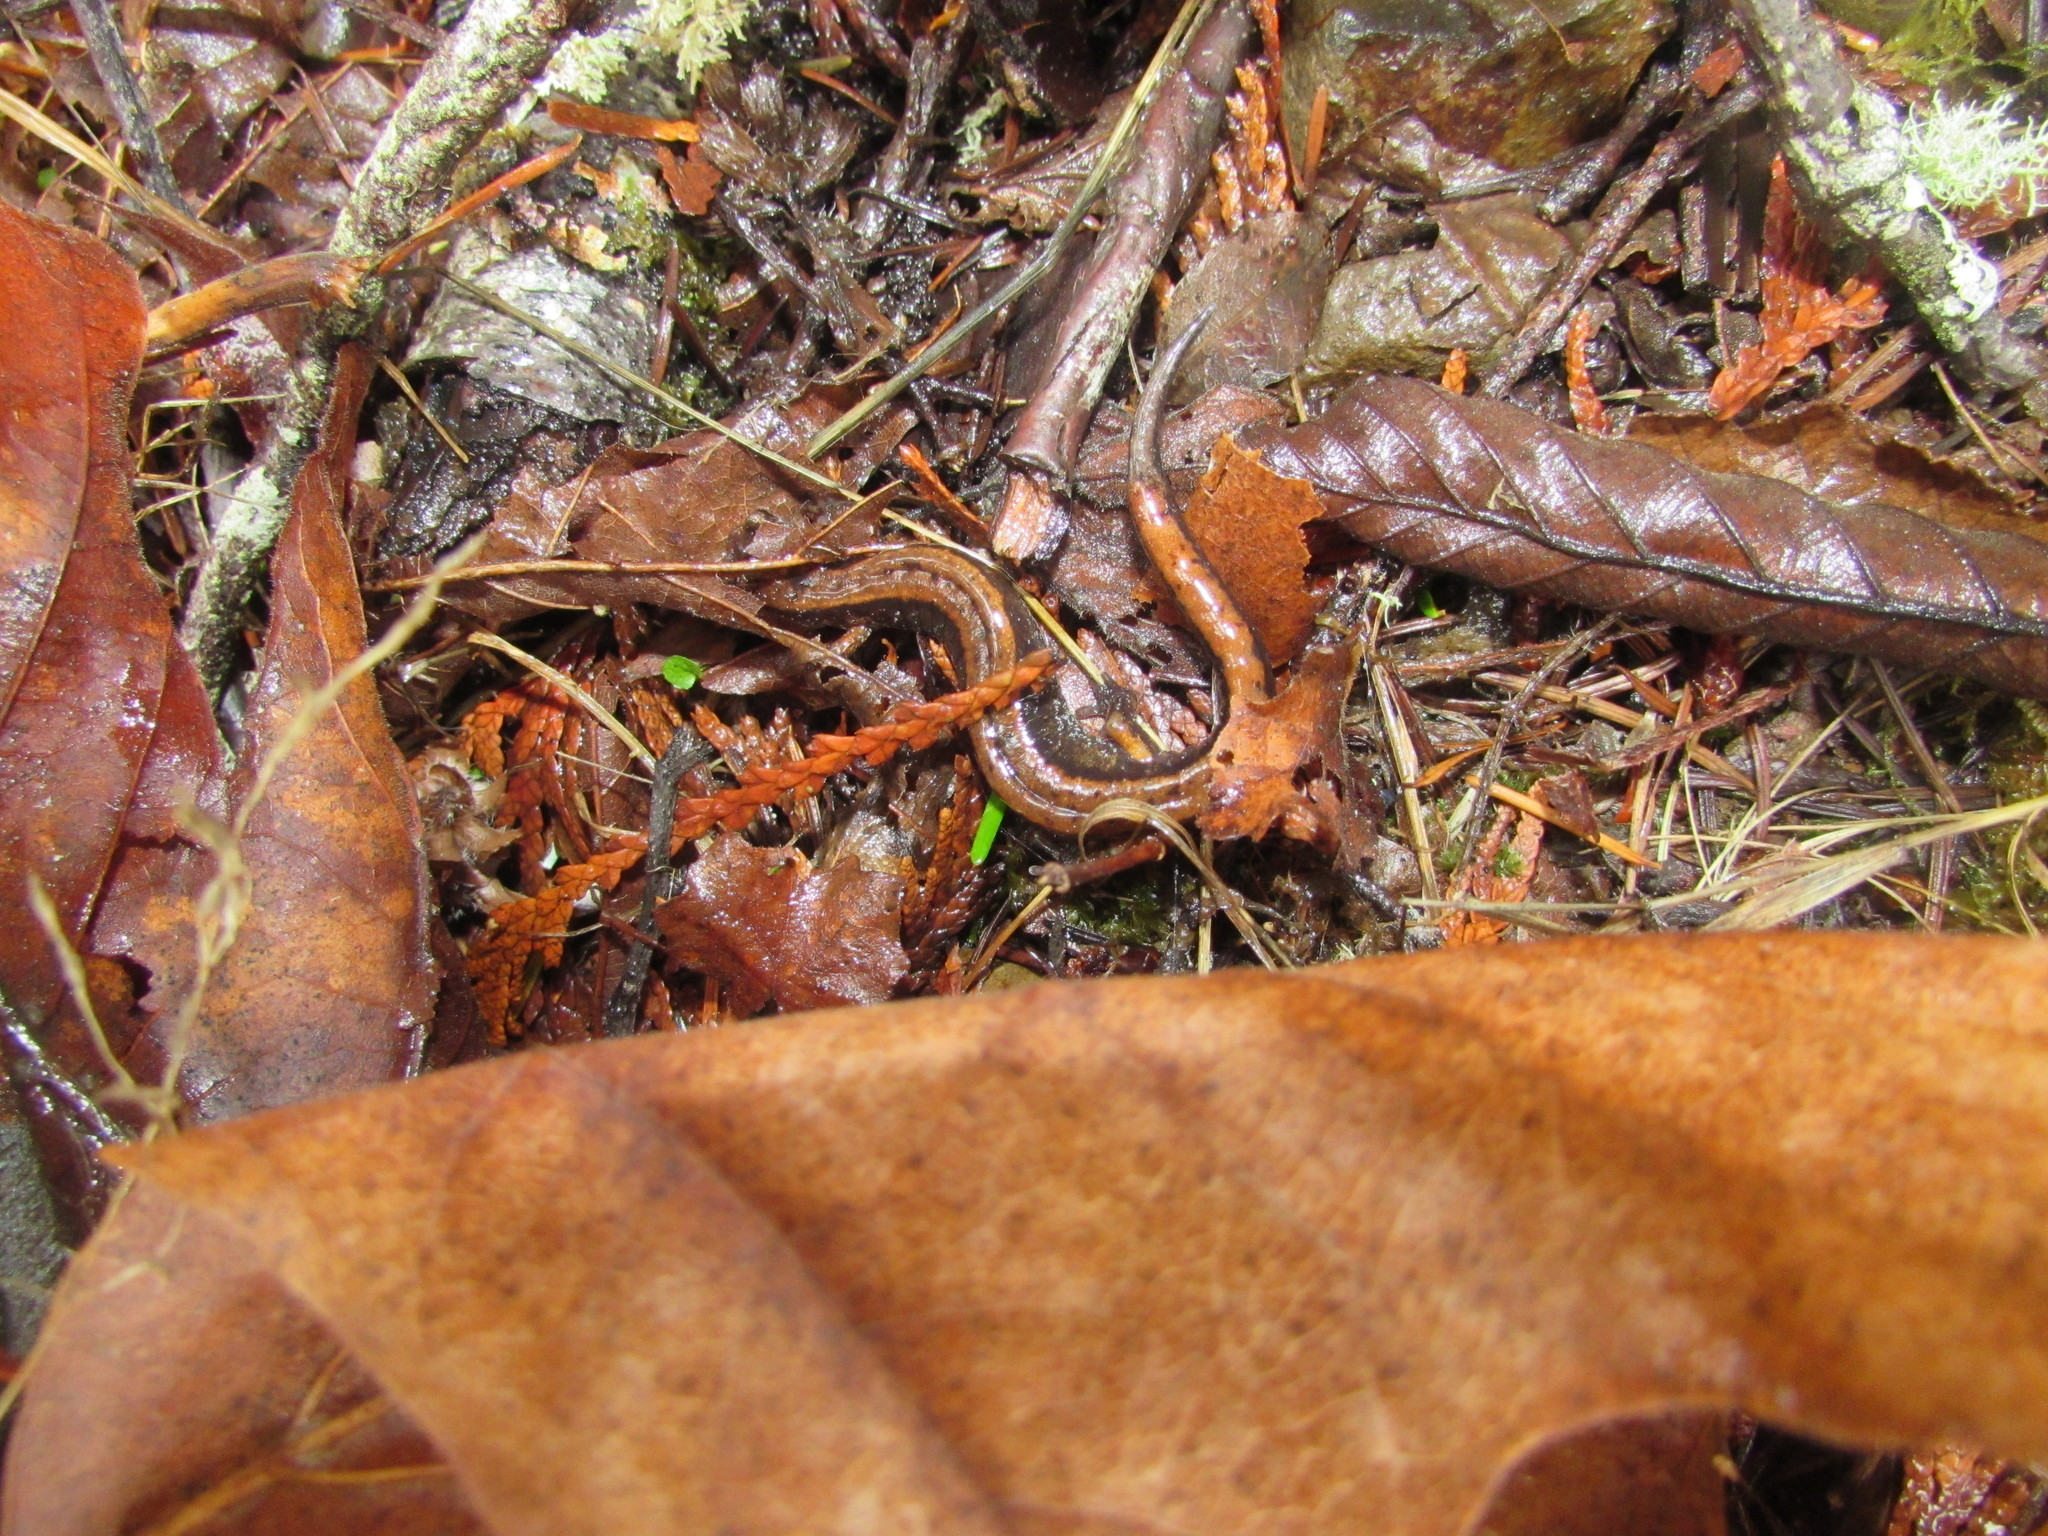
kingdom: Animalia
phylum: Chordata
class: Amphibia
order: Caudata
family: Plethodontidae
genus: Plethodon
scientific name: Plethodon vehiculum
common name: Western red-backed salamander
